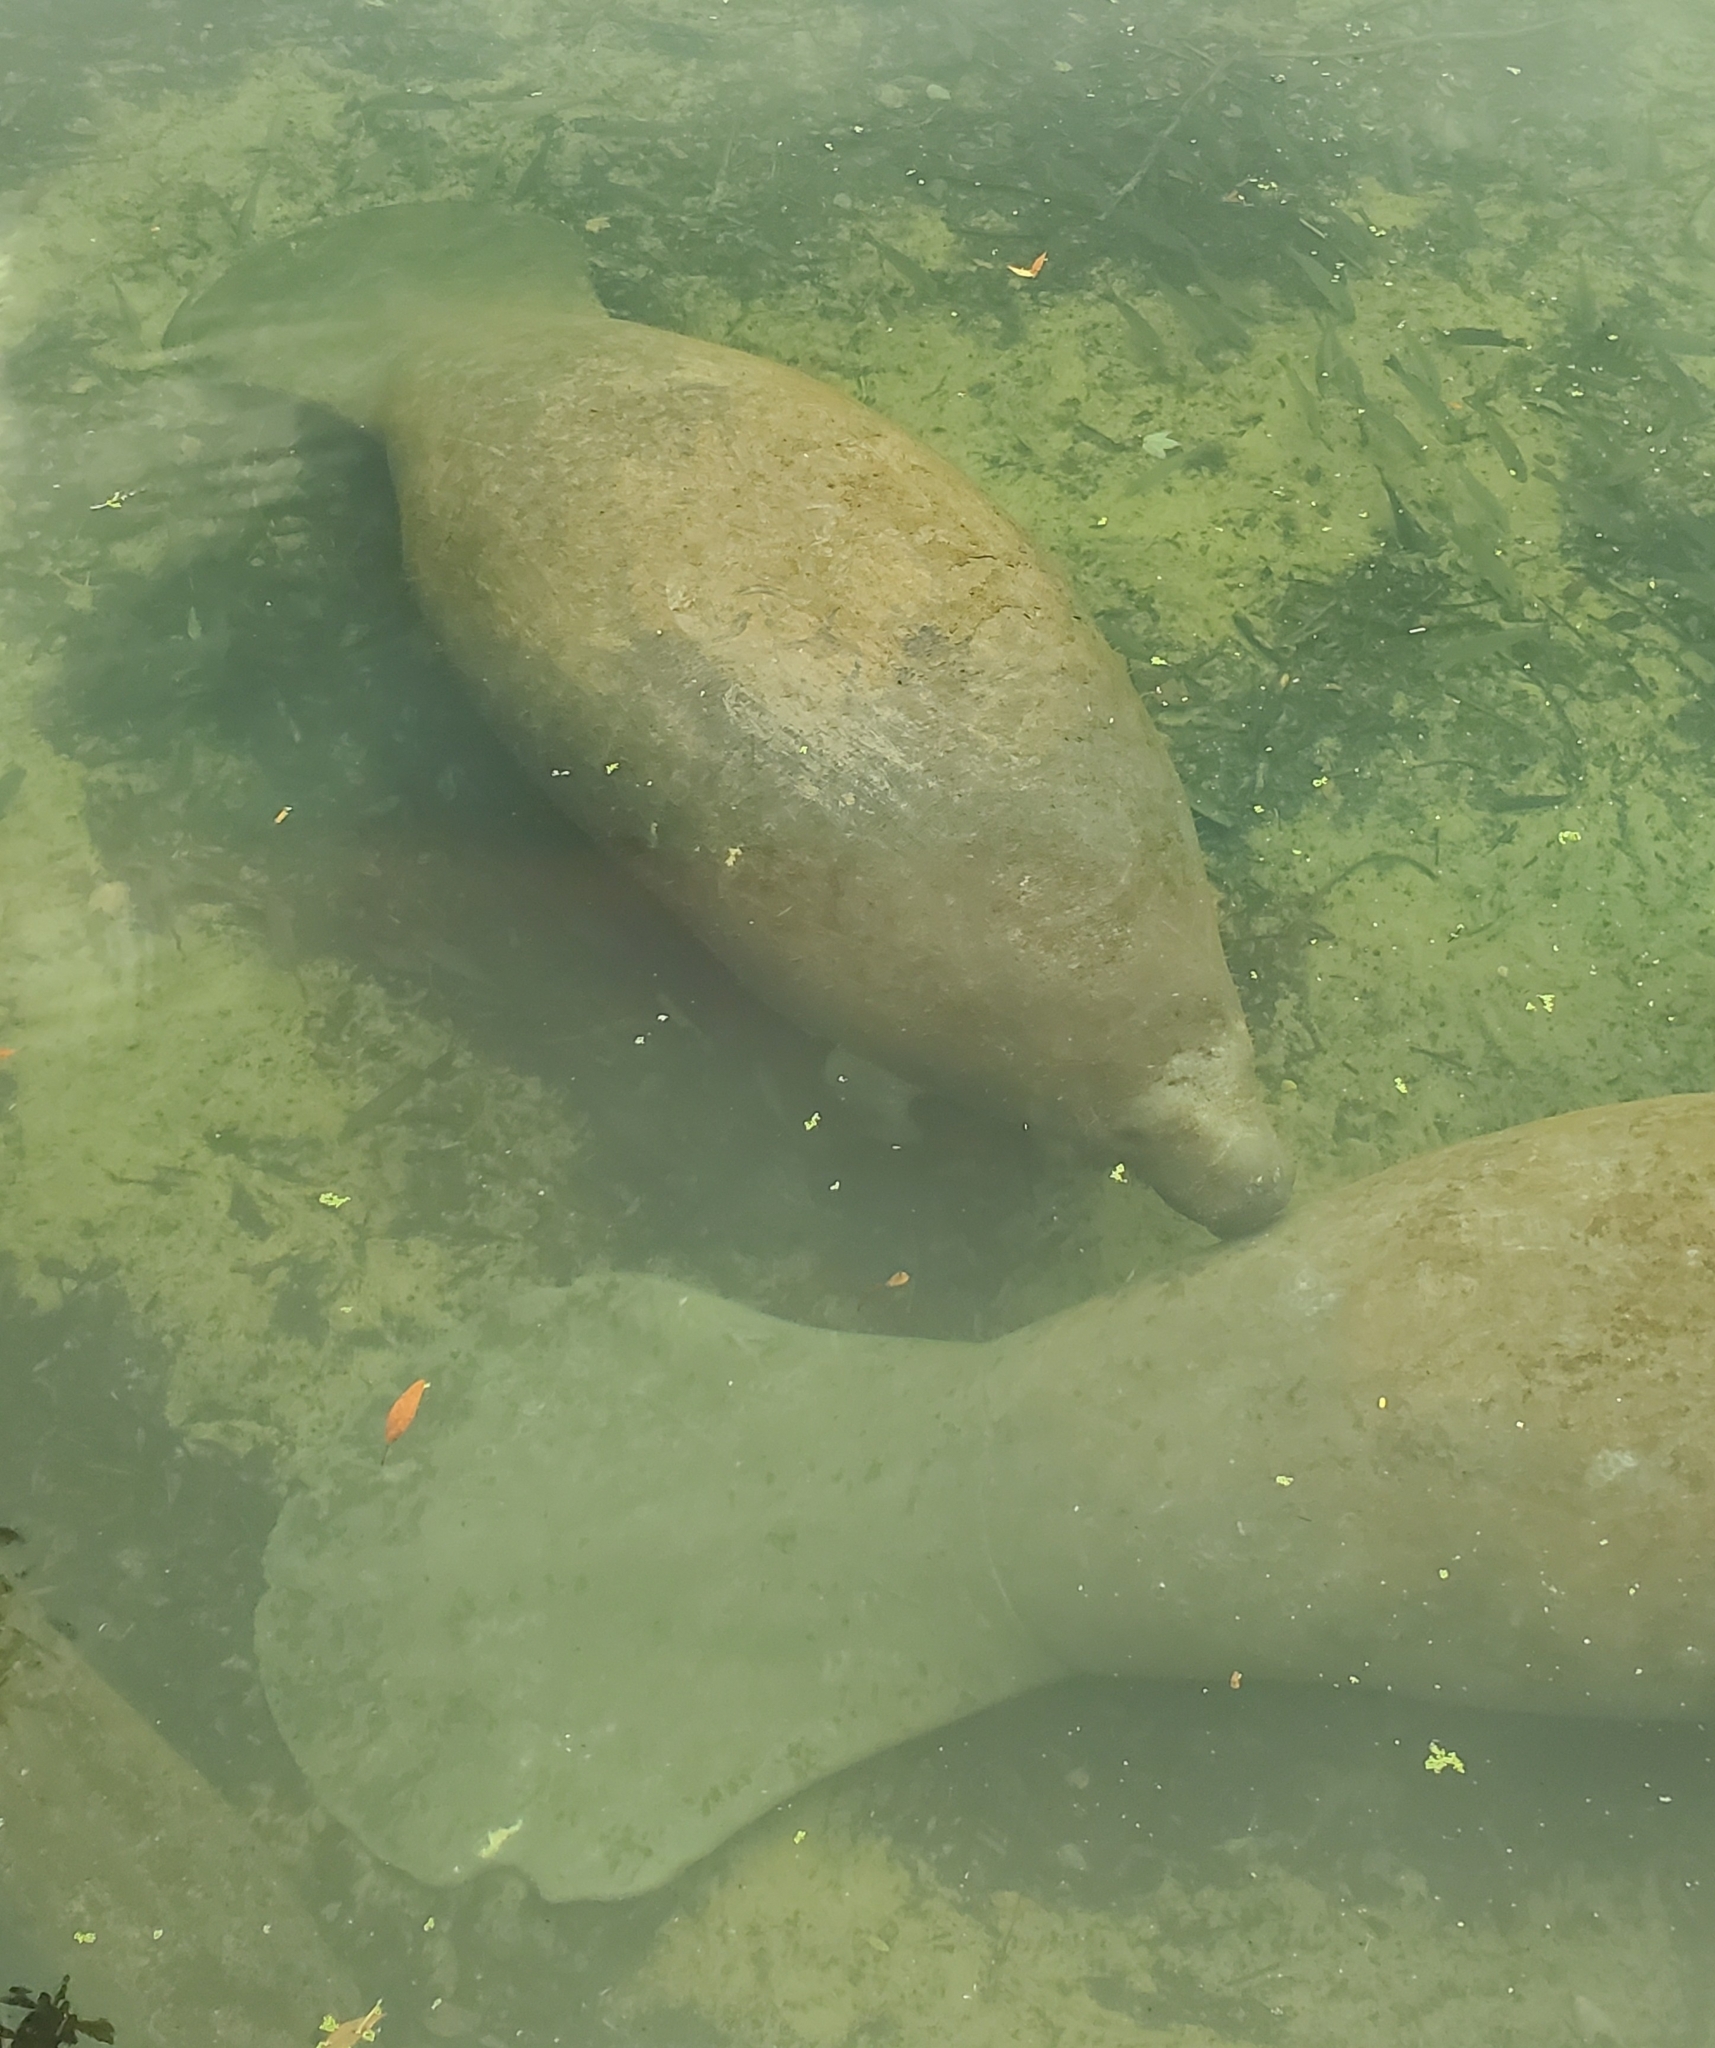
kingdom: Animalia
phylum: Chordata
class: Mammalia
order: Sirenia
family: Trichechidae
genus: Trichechus
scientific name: Trichechus manatus
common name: West indian manatee
